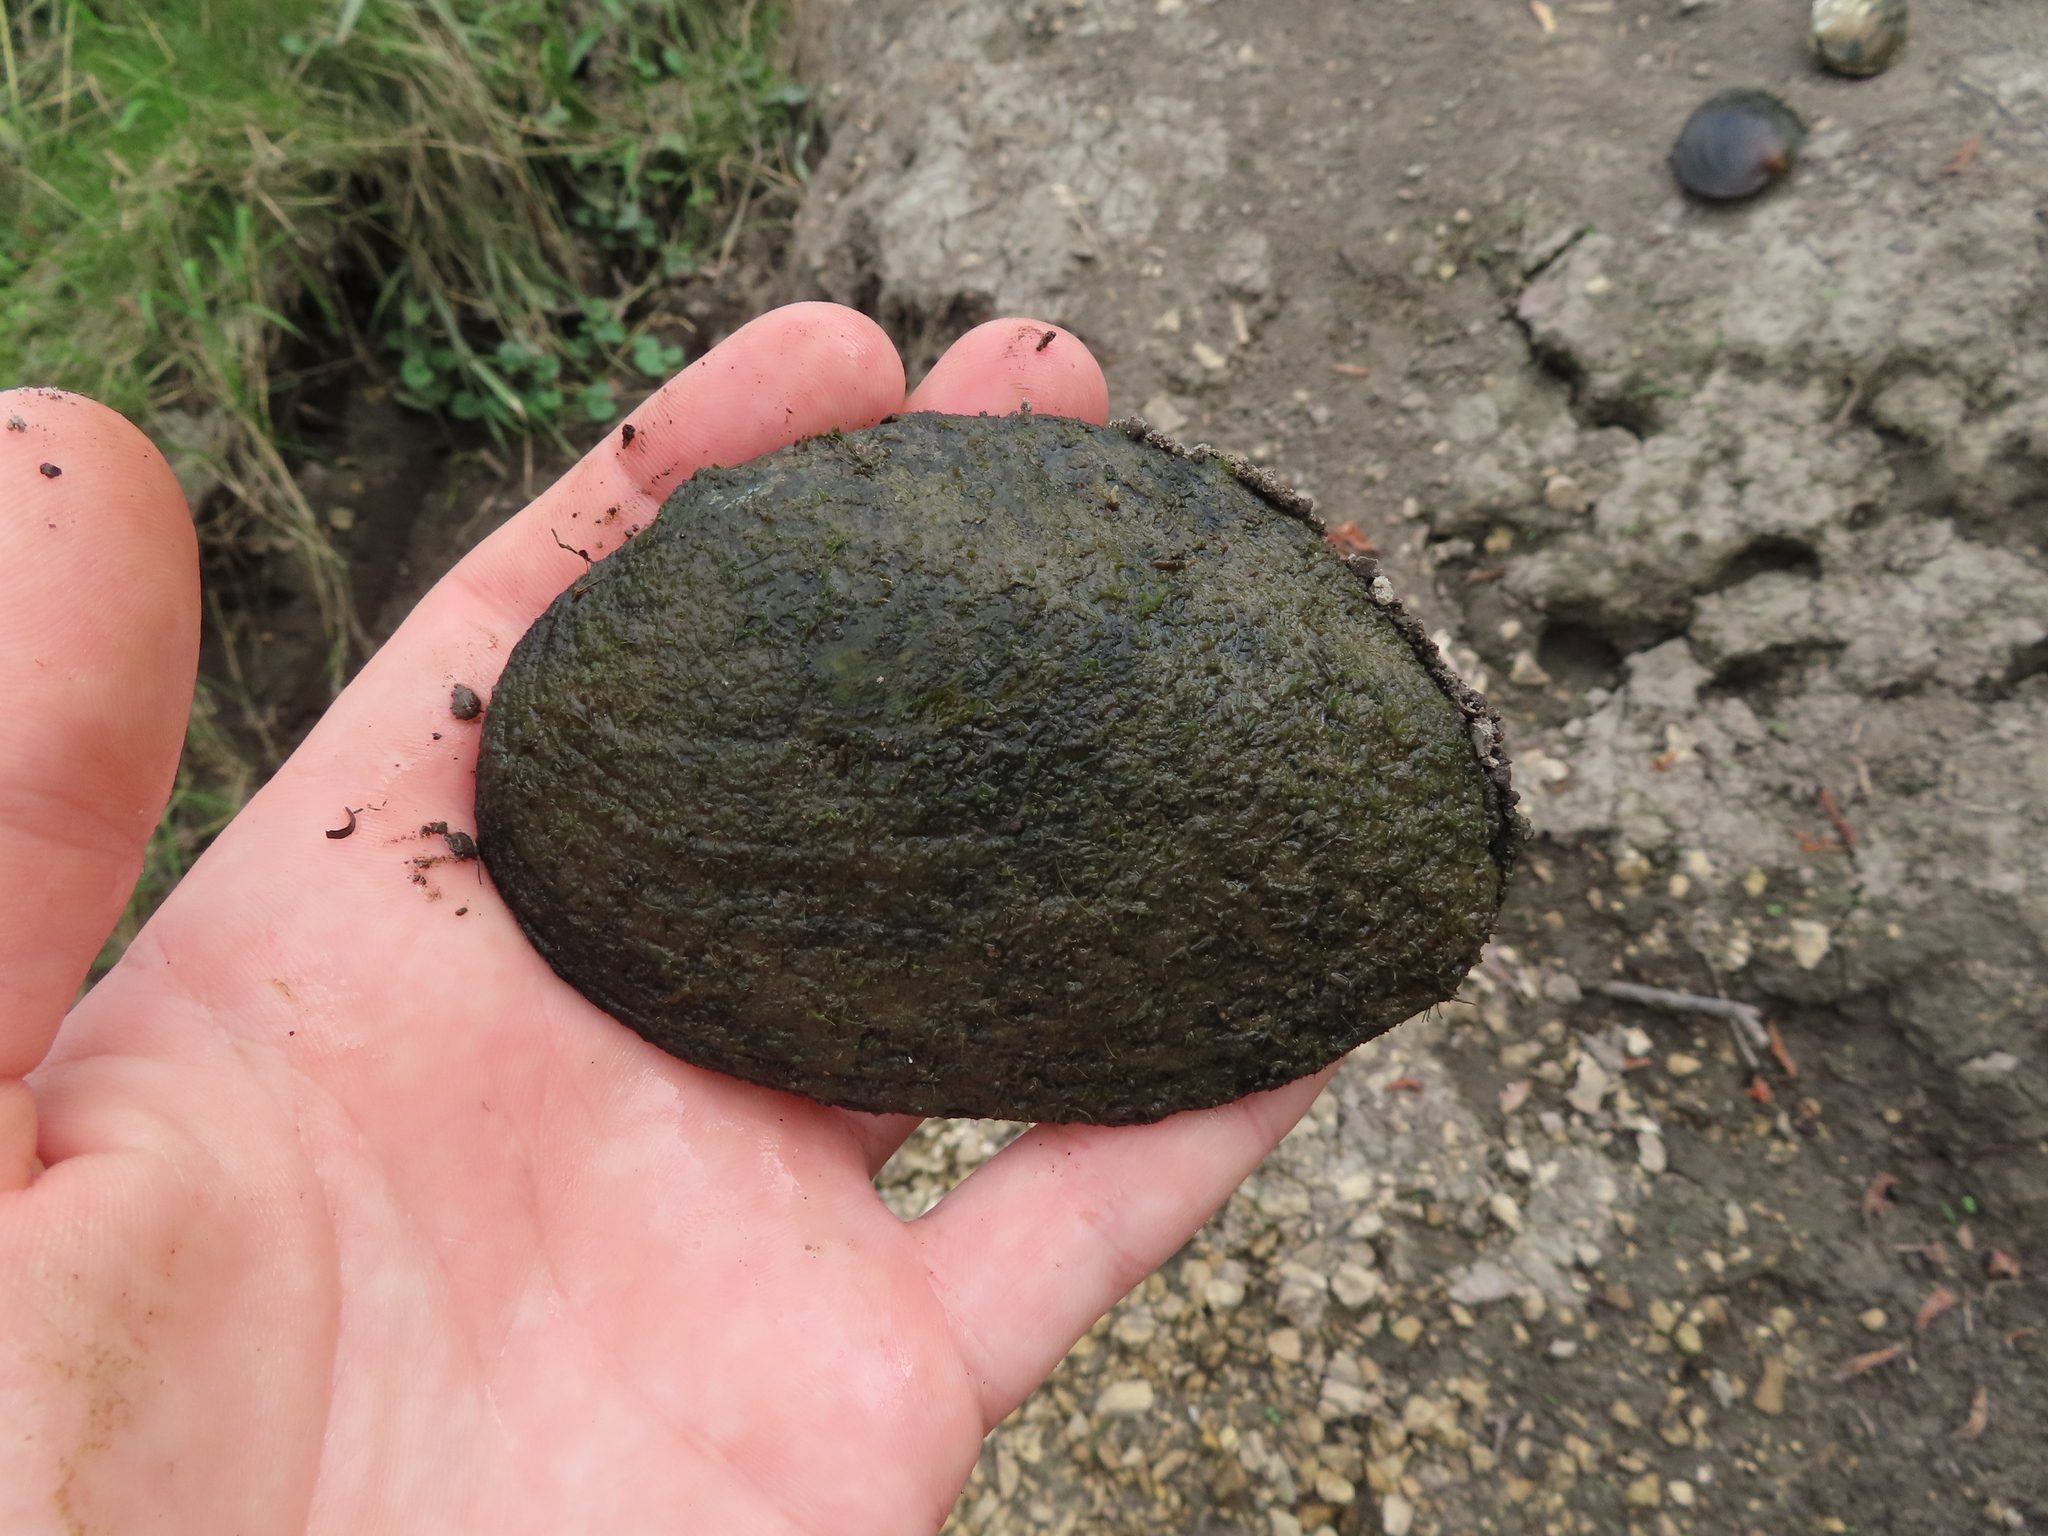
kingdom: Animalia
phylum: Mollusca
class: Bivalvia
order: Unionida
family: Unionidae
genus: Lasmigona
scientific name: Lasmigona complanata
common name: White heelsplitter
